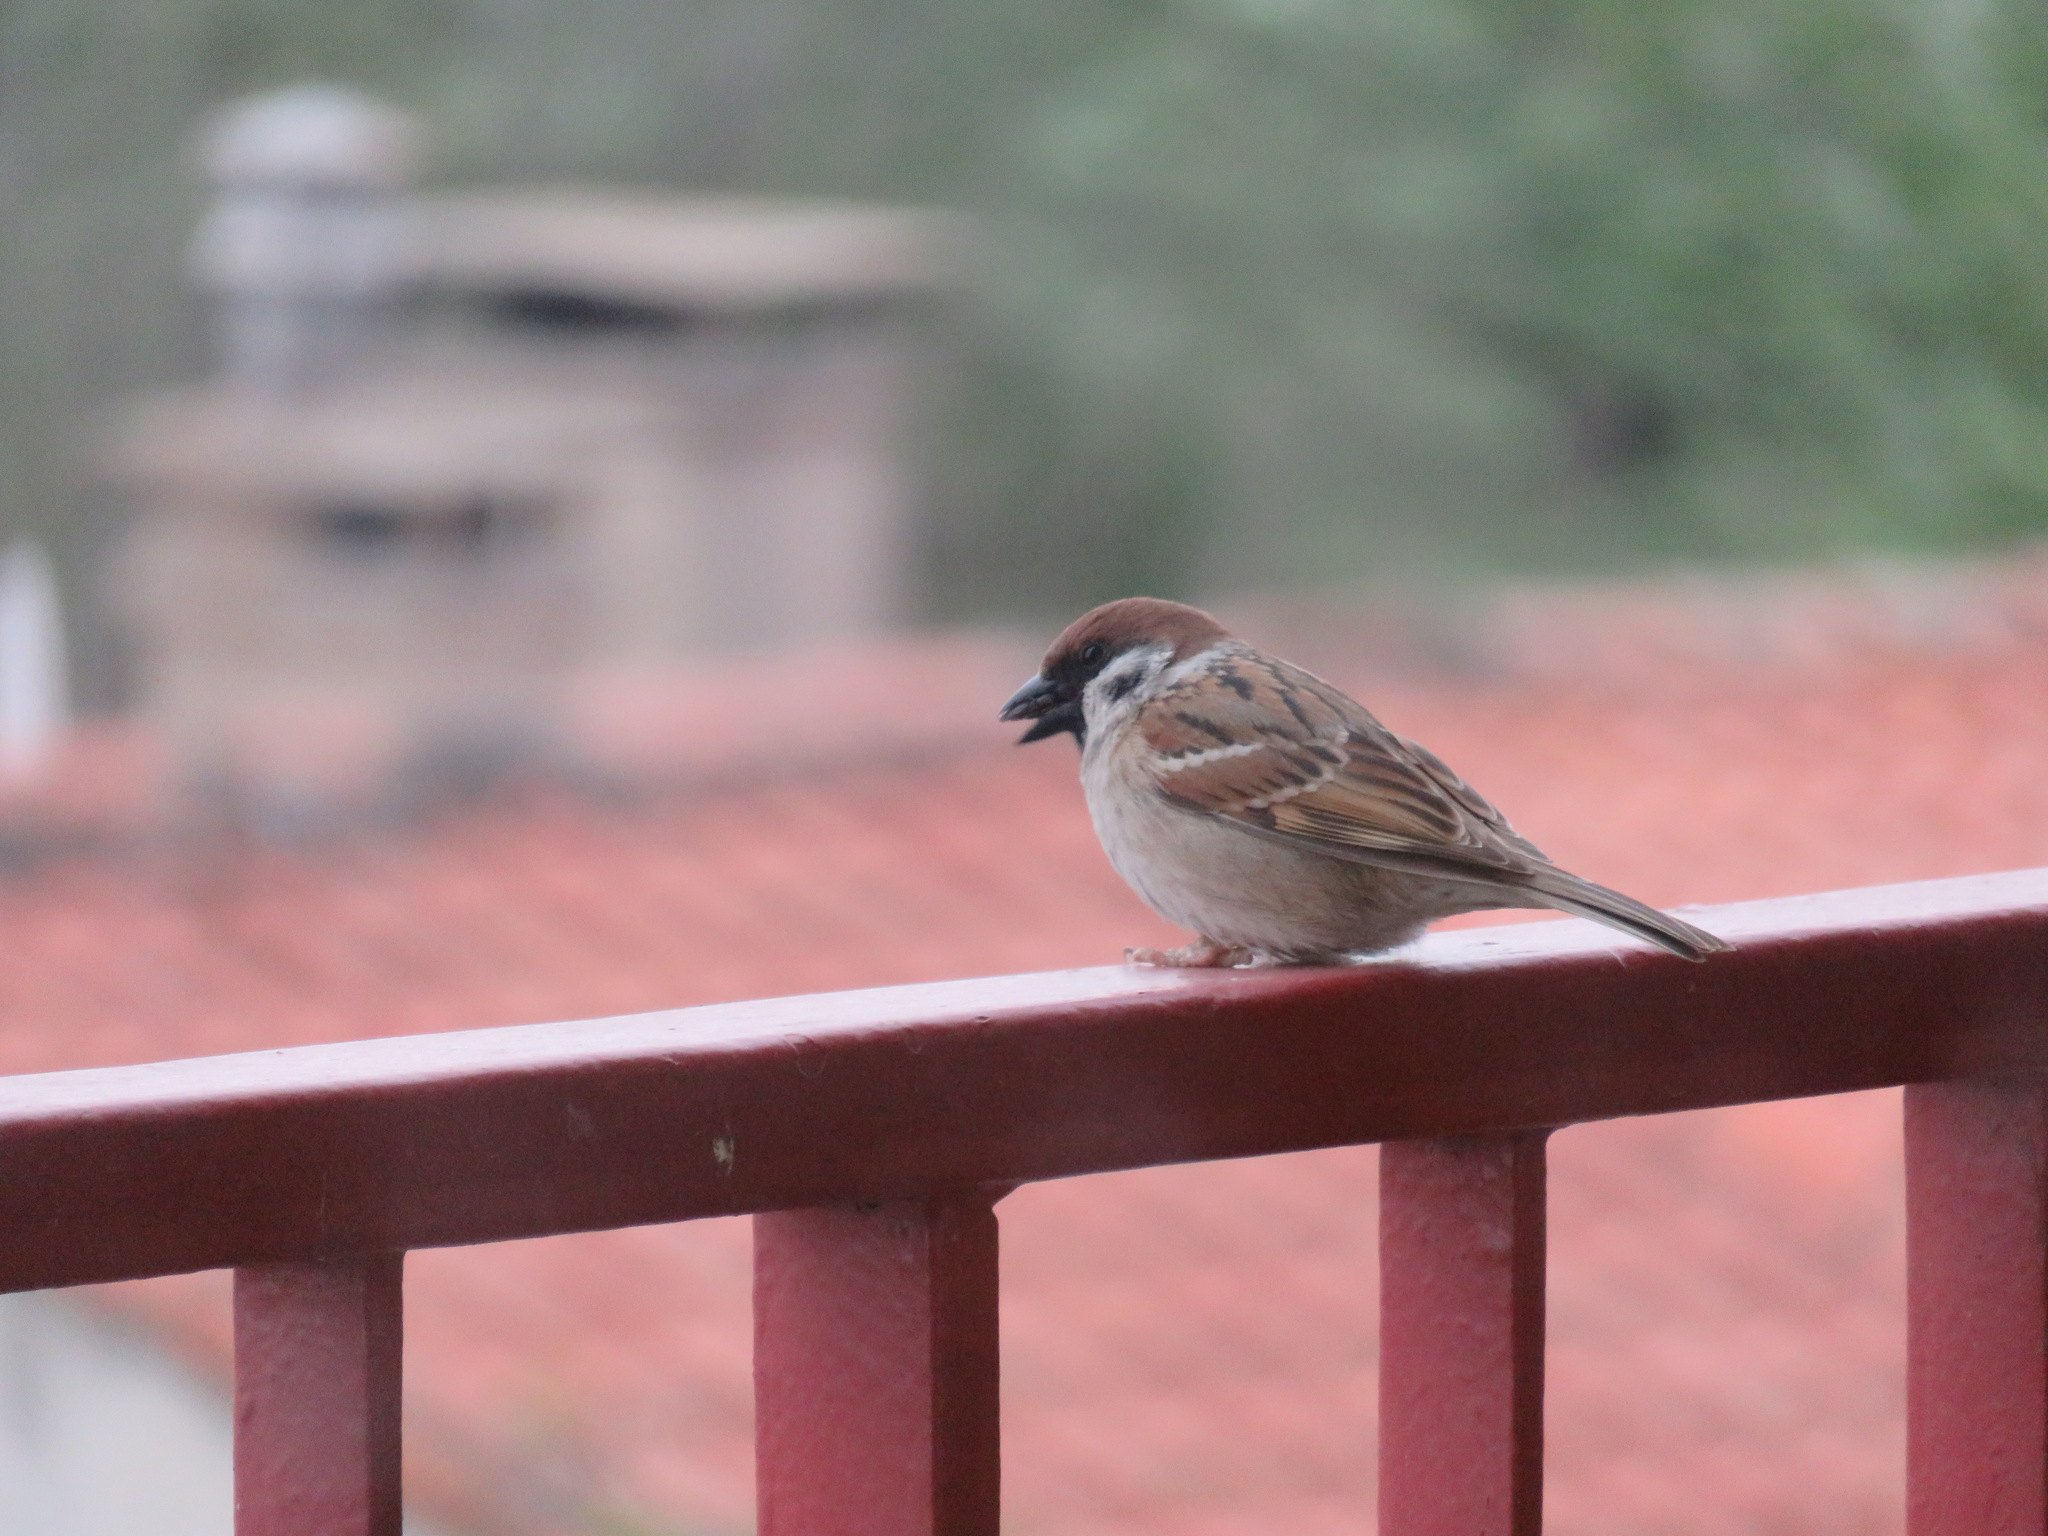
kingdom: Animalia
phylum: Chordata
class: Aves
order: Passeriformes
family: Passeridae
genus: Passer
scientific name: Passer montanus
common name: Eurasian tree sparrow
